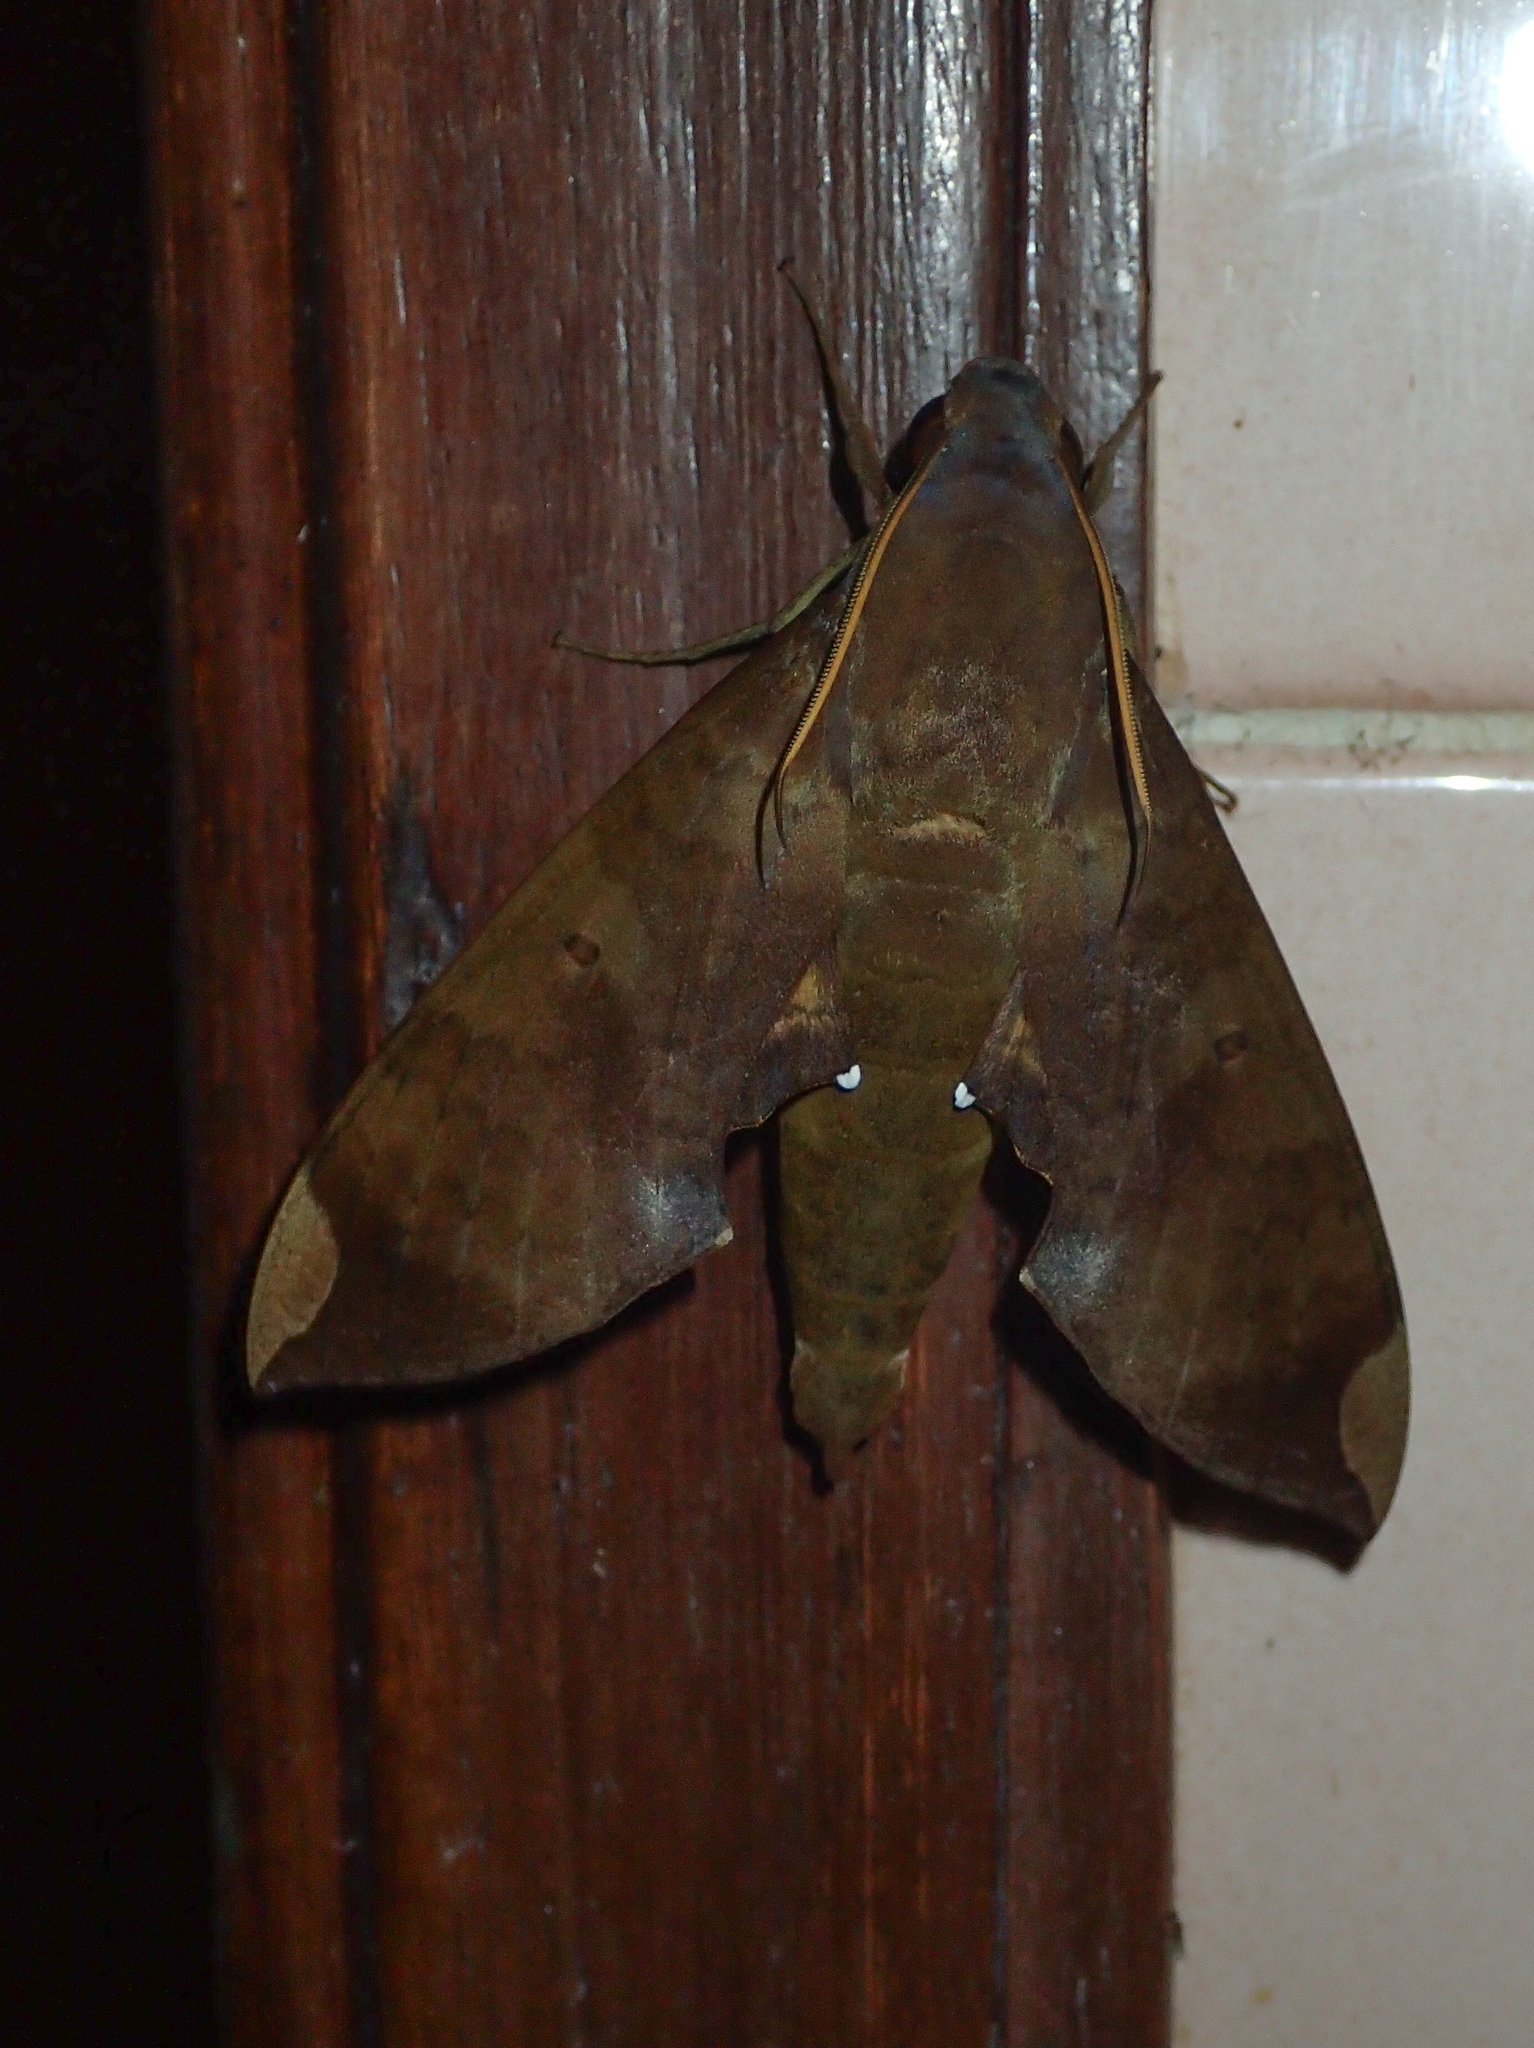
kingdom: Animalia
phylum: Arthropoda
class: Insecta
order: Lepidoptera
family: Sphingidae
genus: Pachylia
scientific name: Pachylia ficus
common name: Fig sphinx
